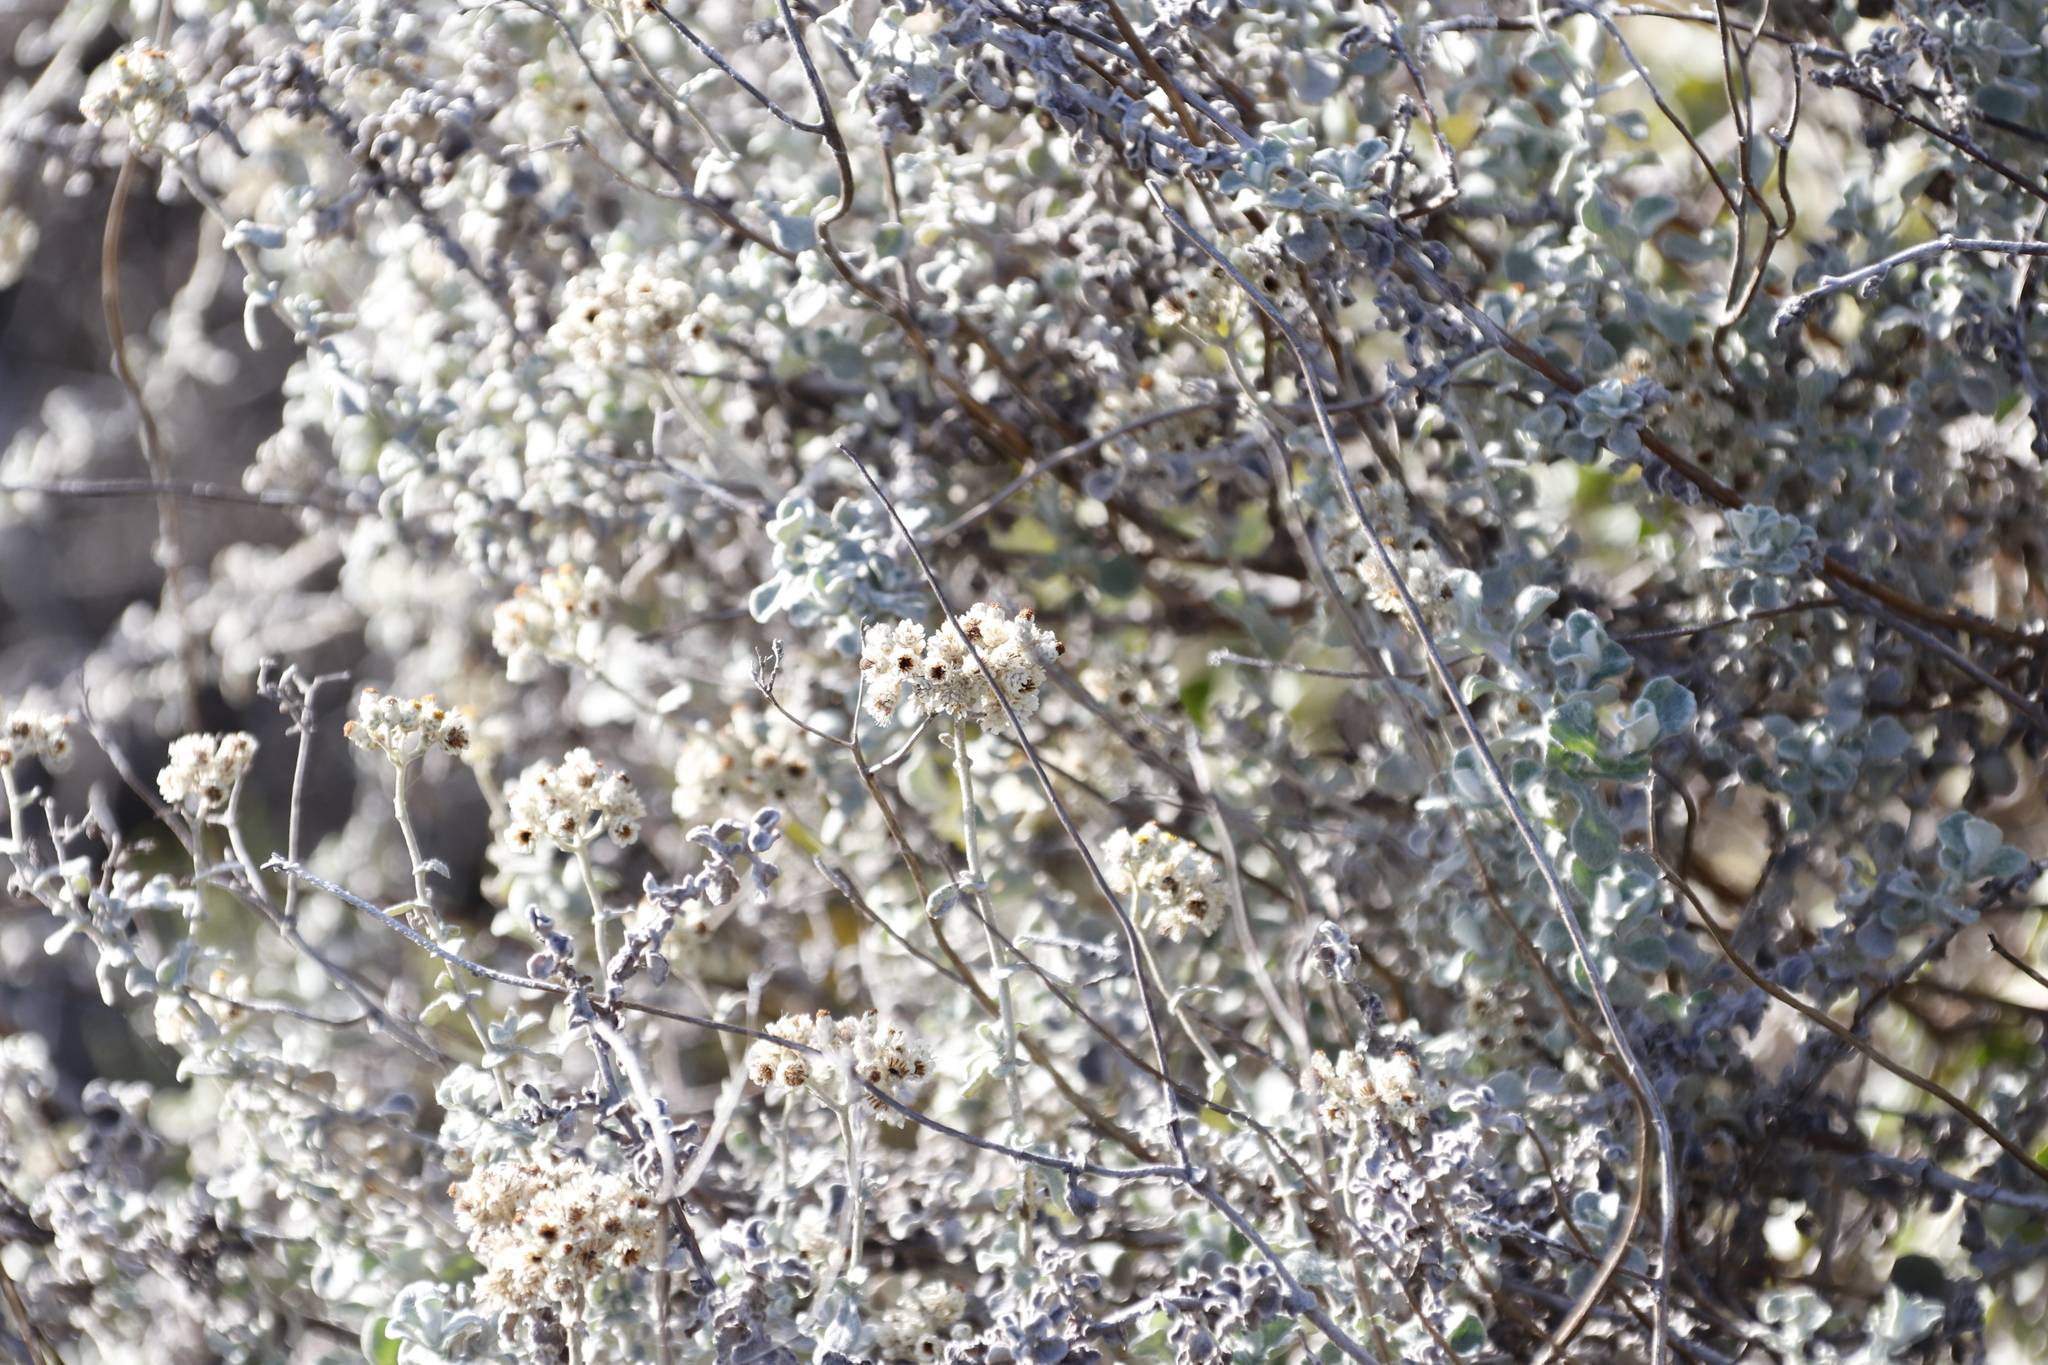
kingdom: Plantae
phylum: Tracheophyta
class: Magnoliopsida
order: Asterales
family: Asteraceae
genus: Helichrysum
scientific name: Helichrysum patulum
